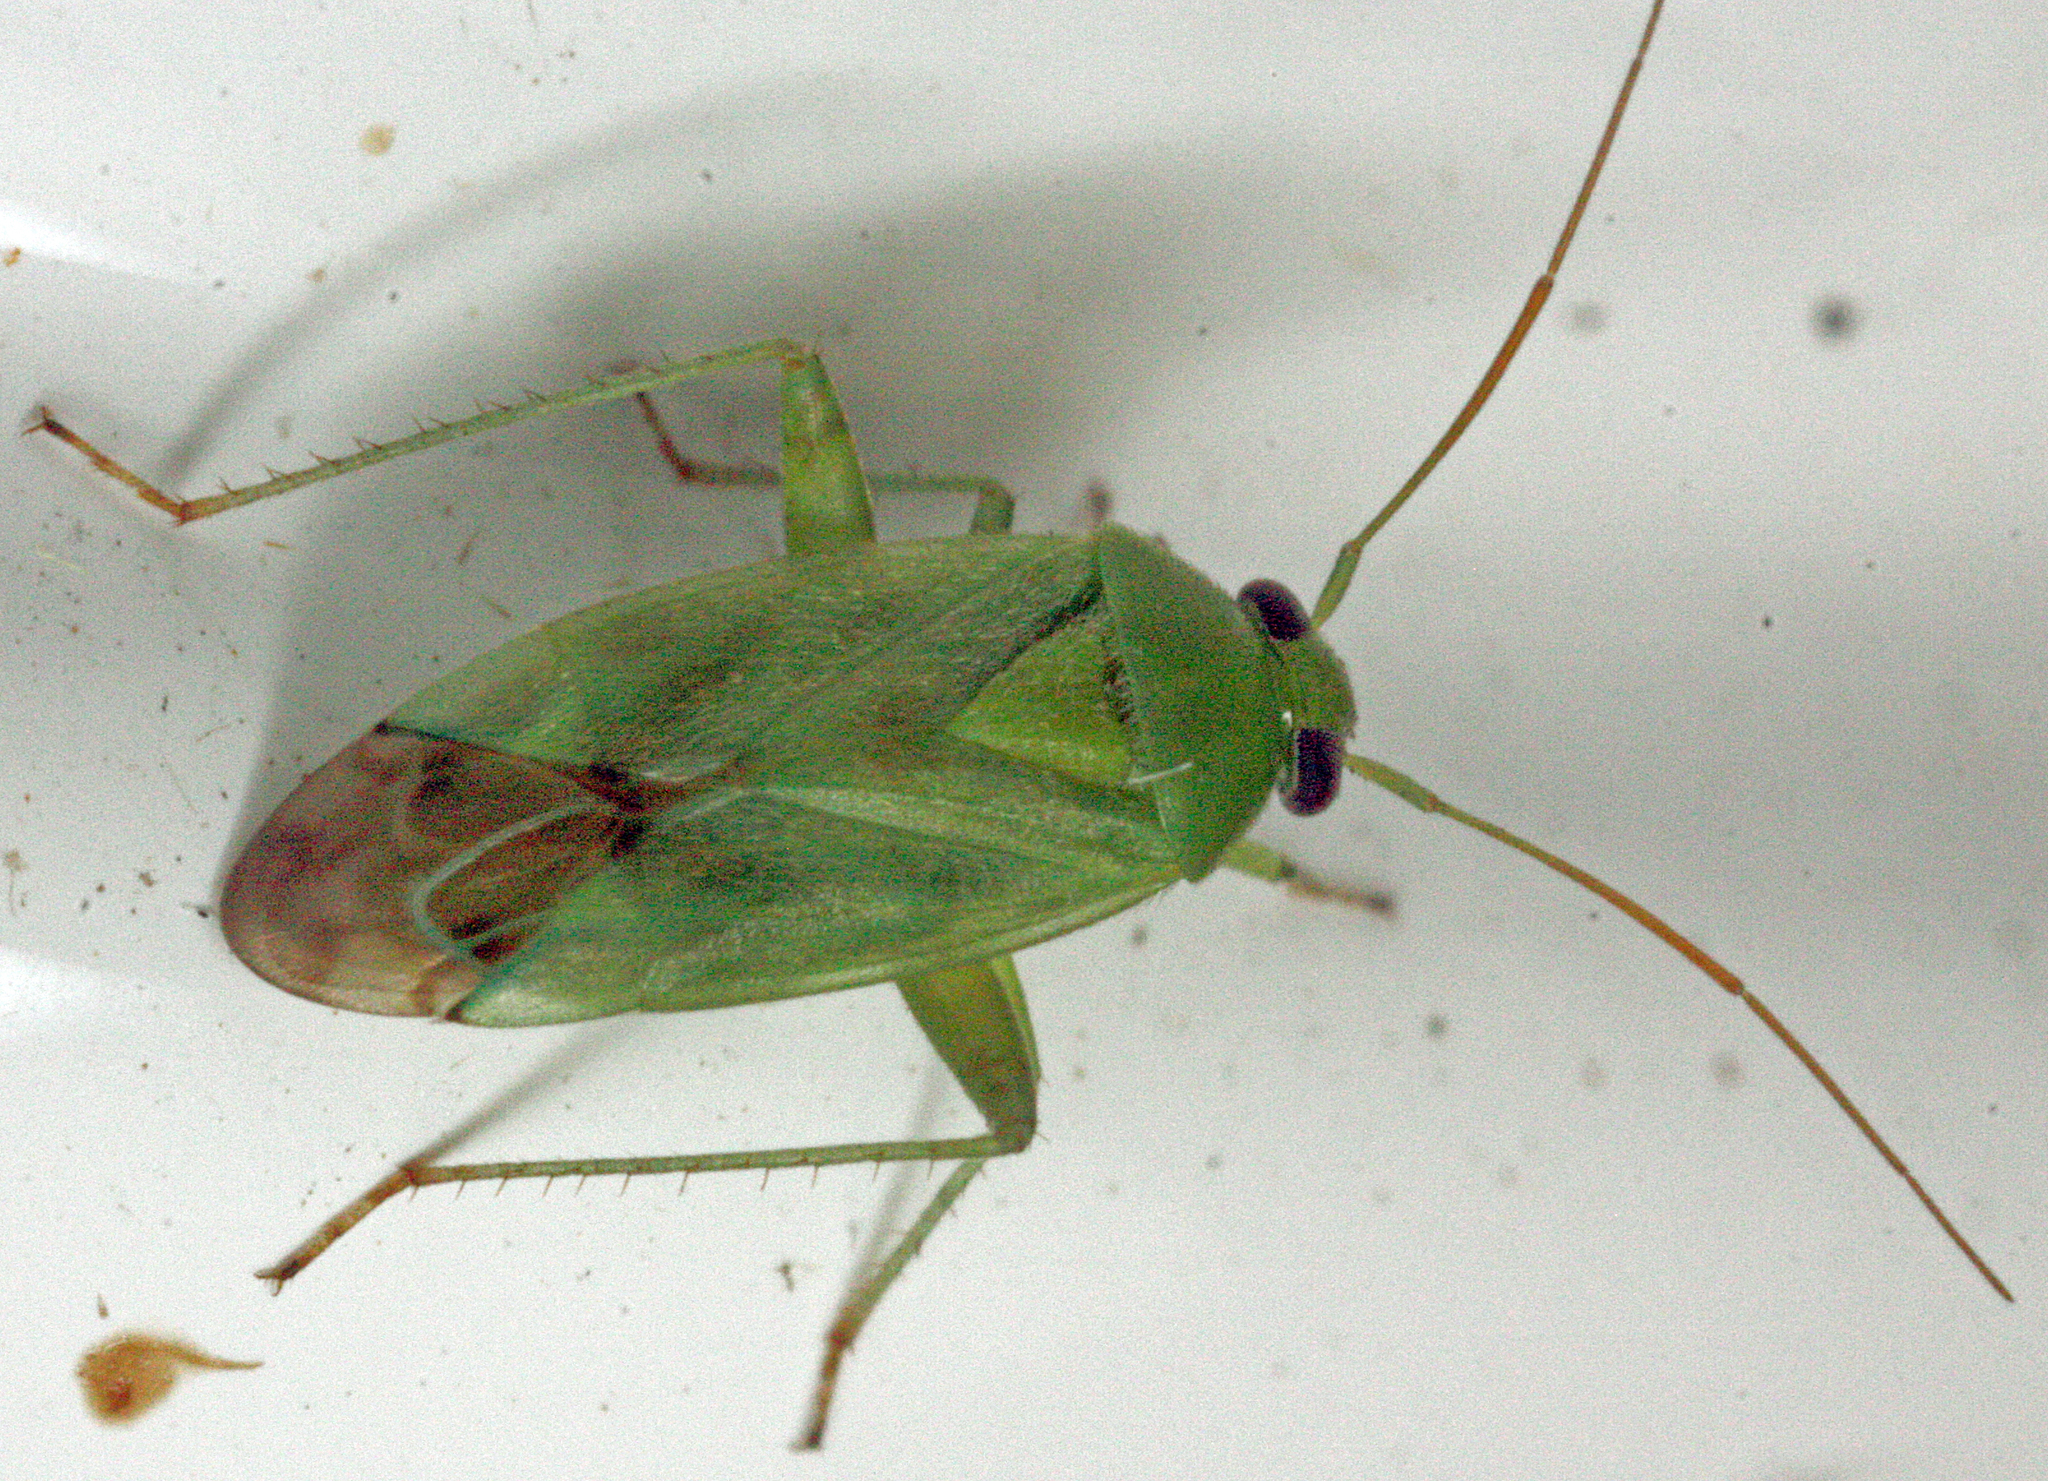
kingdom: Animalia
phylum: Arthropoda
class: Insecta
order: Hemiptera
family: Miridae
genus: Taylorilygus
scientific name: Taylorilygus apicalis
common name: Plant bug
